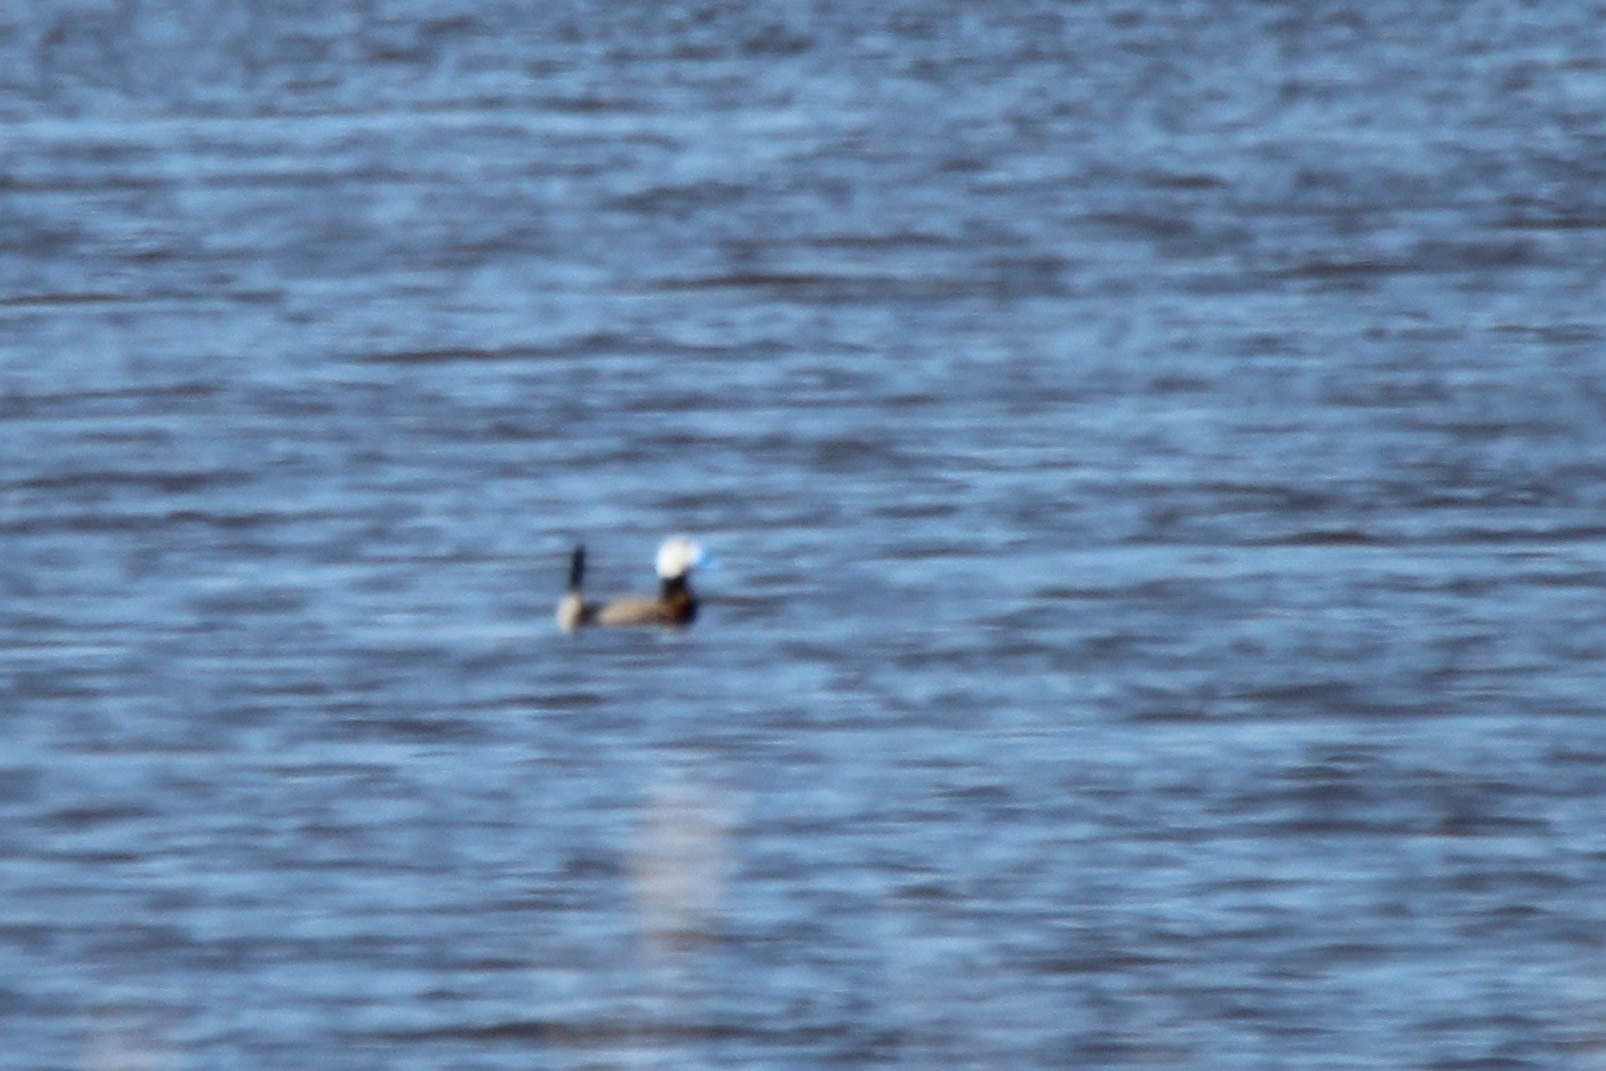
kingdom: Animalia
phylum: Chordata
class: Aves
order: Anseriformes
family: Anatidae
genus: Oxyura
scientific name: Oxyura leucocephala
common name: White-headed duck
